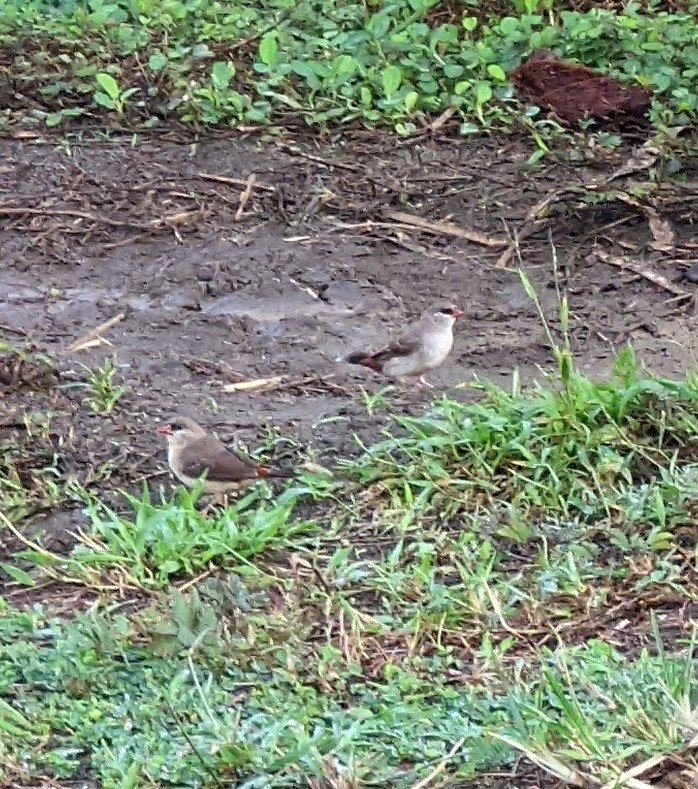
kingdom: Animalia
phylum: Chordata
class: Aves
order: Passeriformes
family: Estrildidae
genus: Amandava
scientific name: Amandava amandava
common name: Red avadavat
